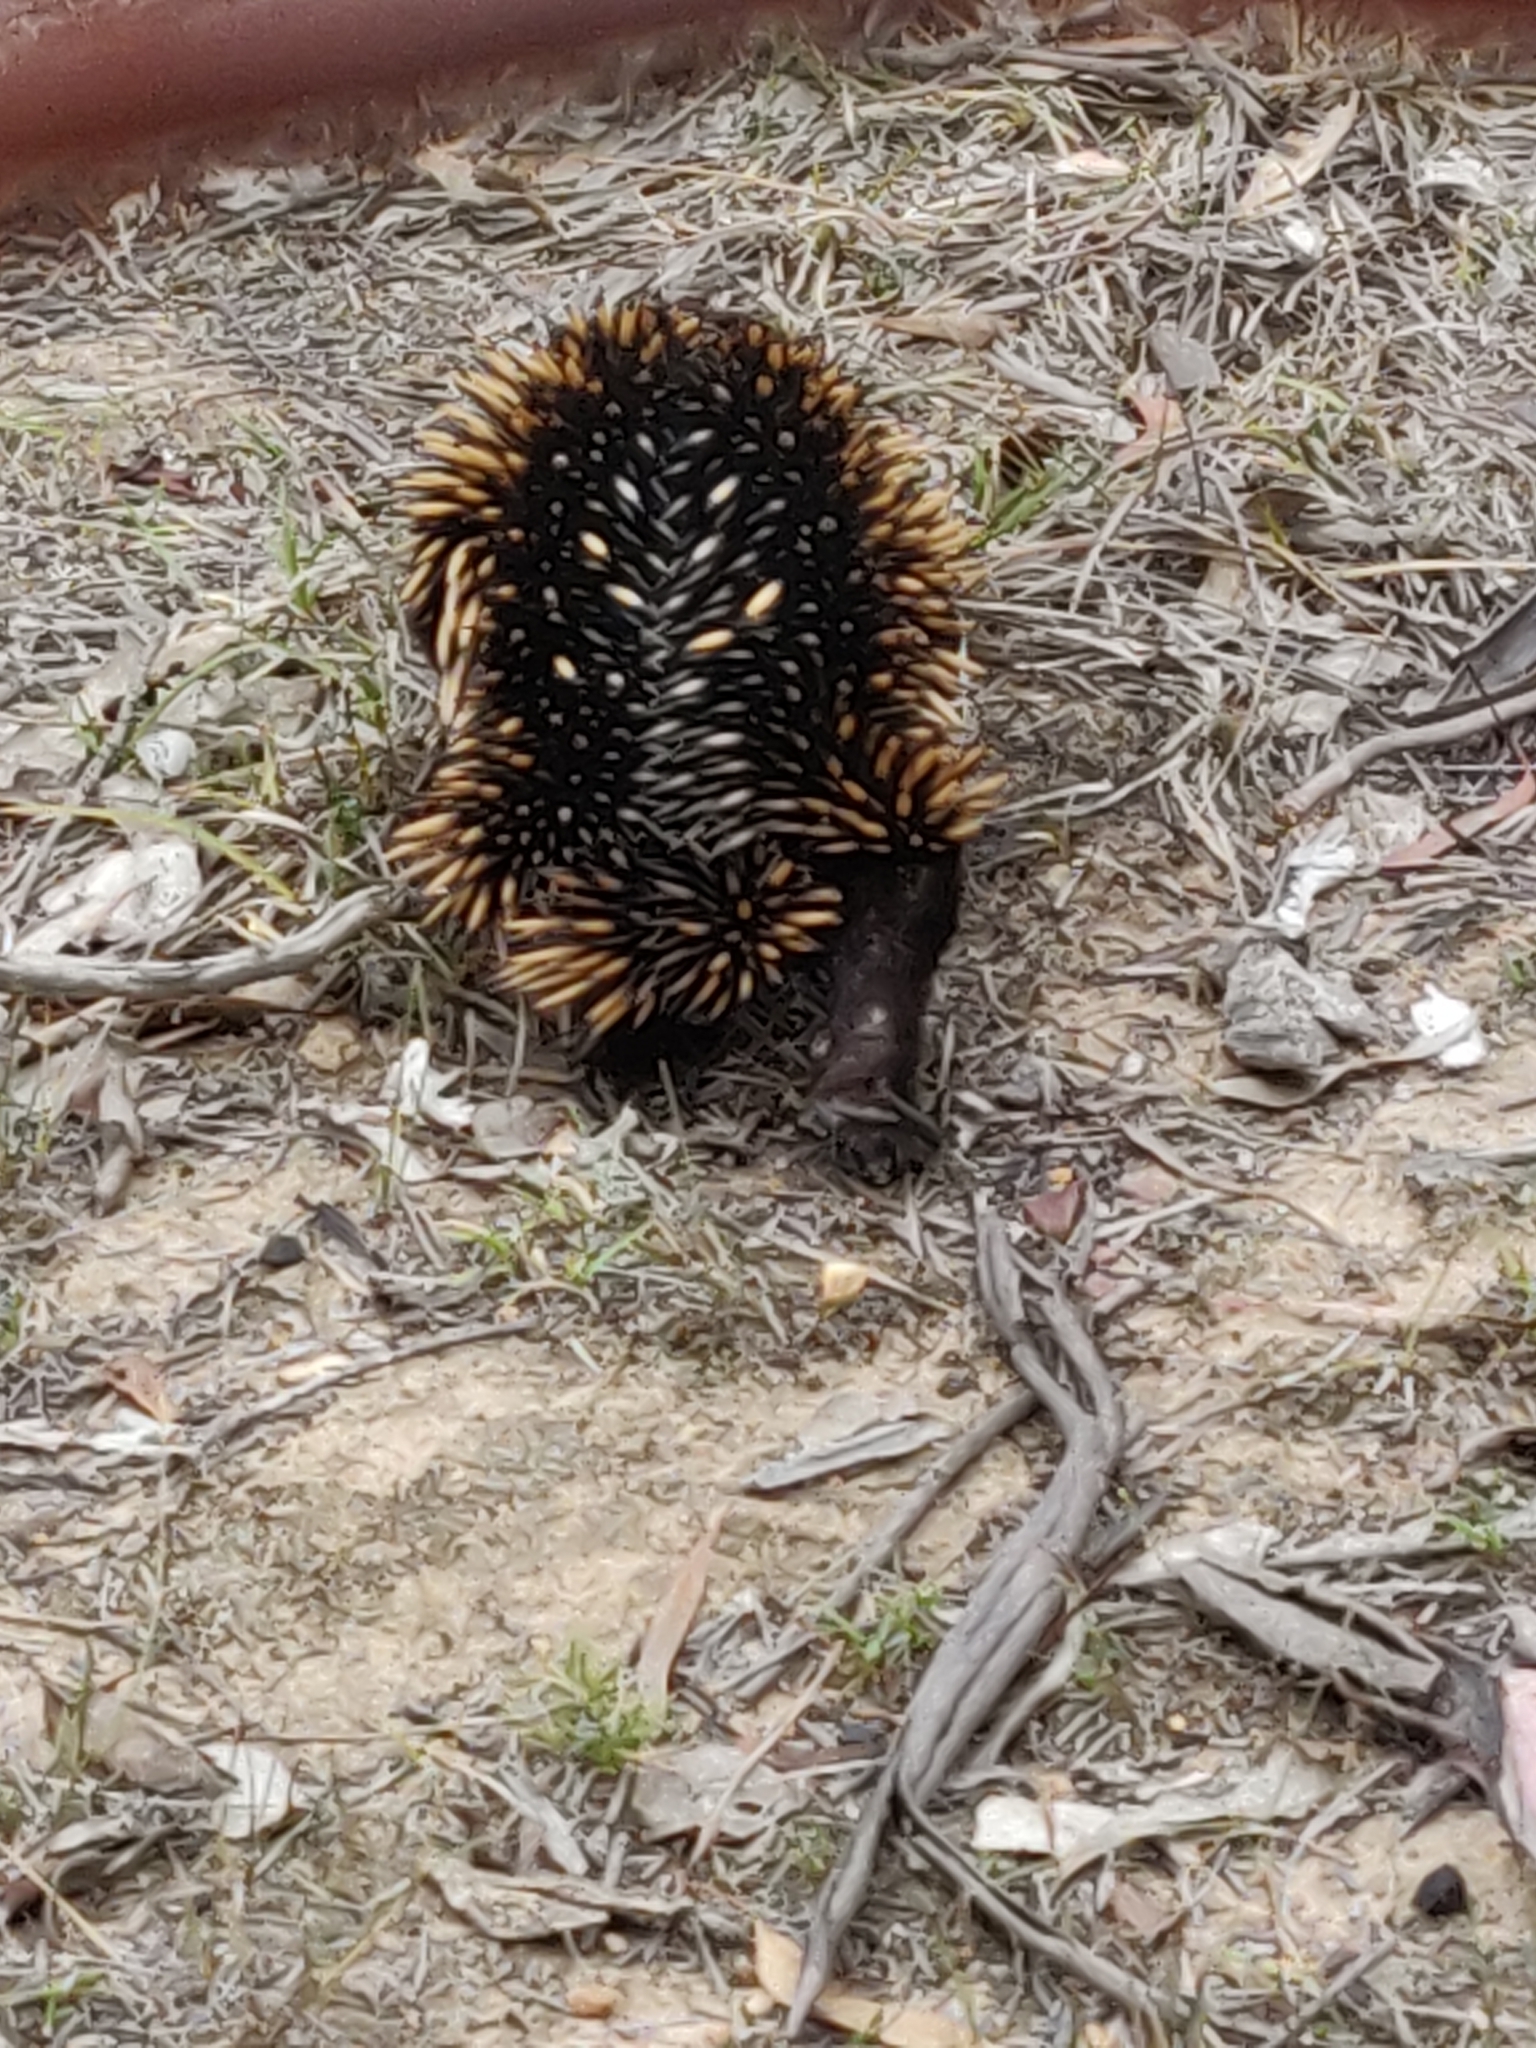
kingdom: Animalia
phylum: Chordata
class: Mammalia
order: Monotremata
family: Tachyglossidae
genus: Tachyglossus
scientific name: Tachyglossus aculeatus
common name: Short-beaked echidna
